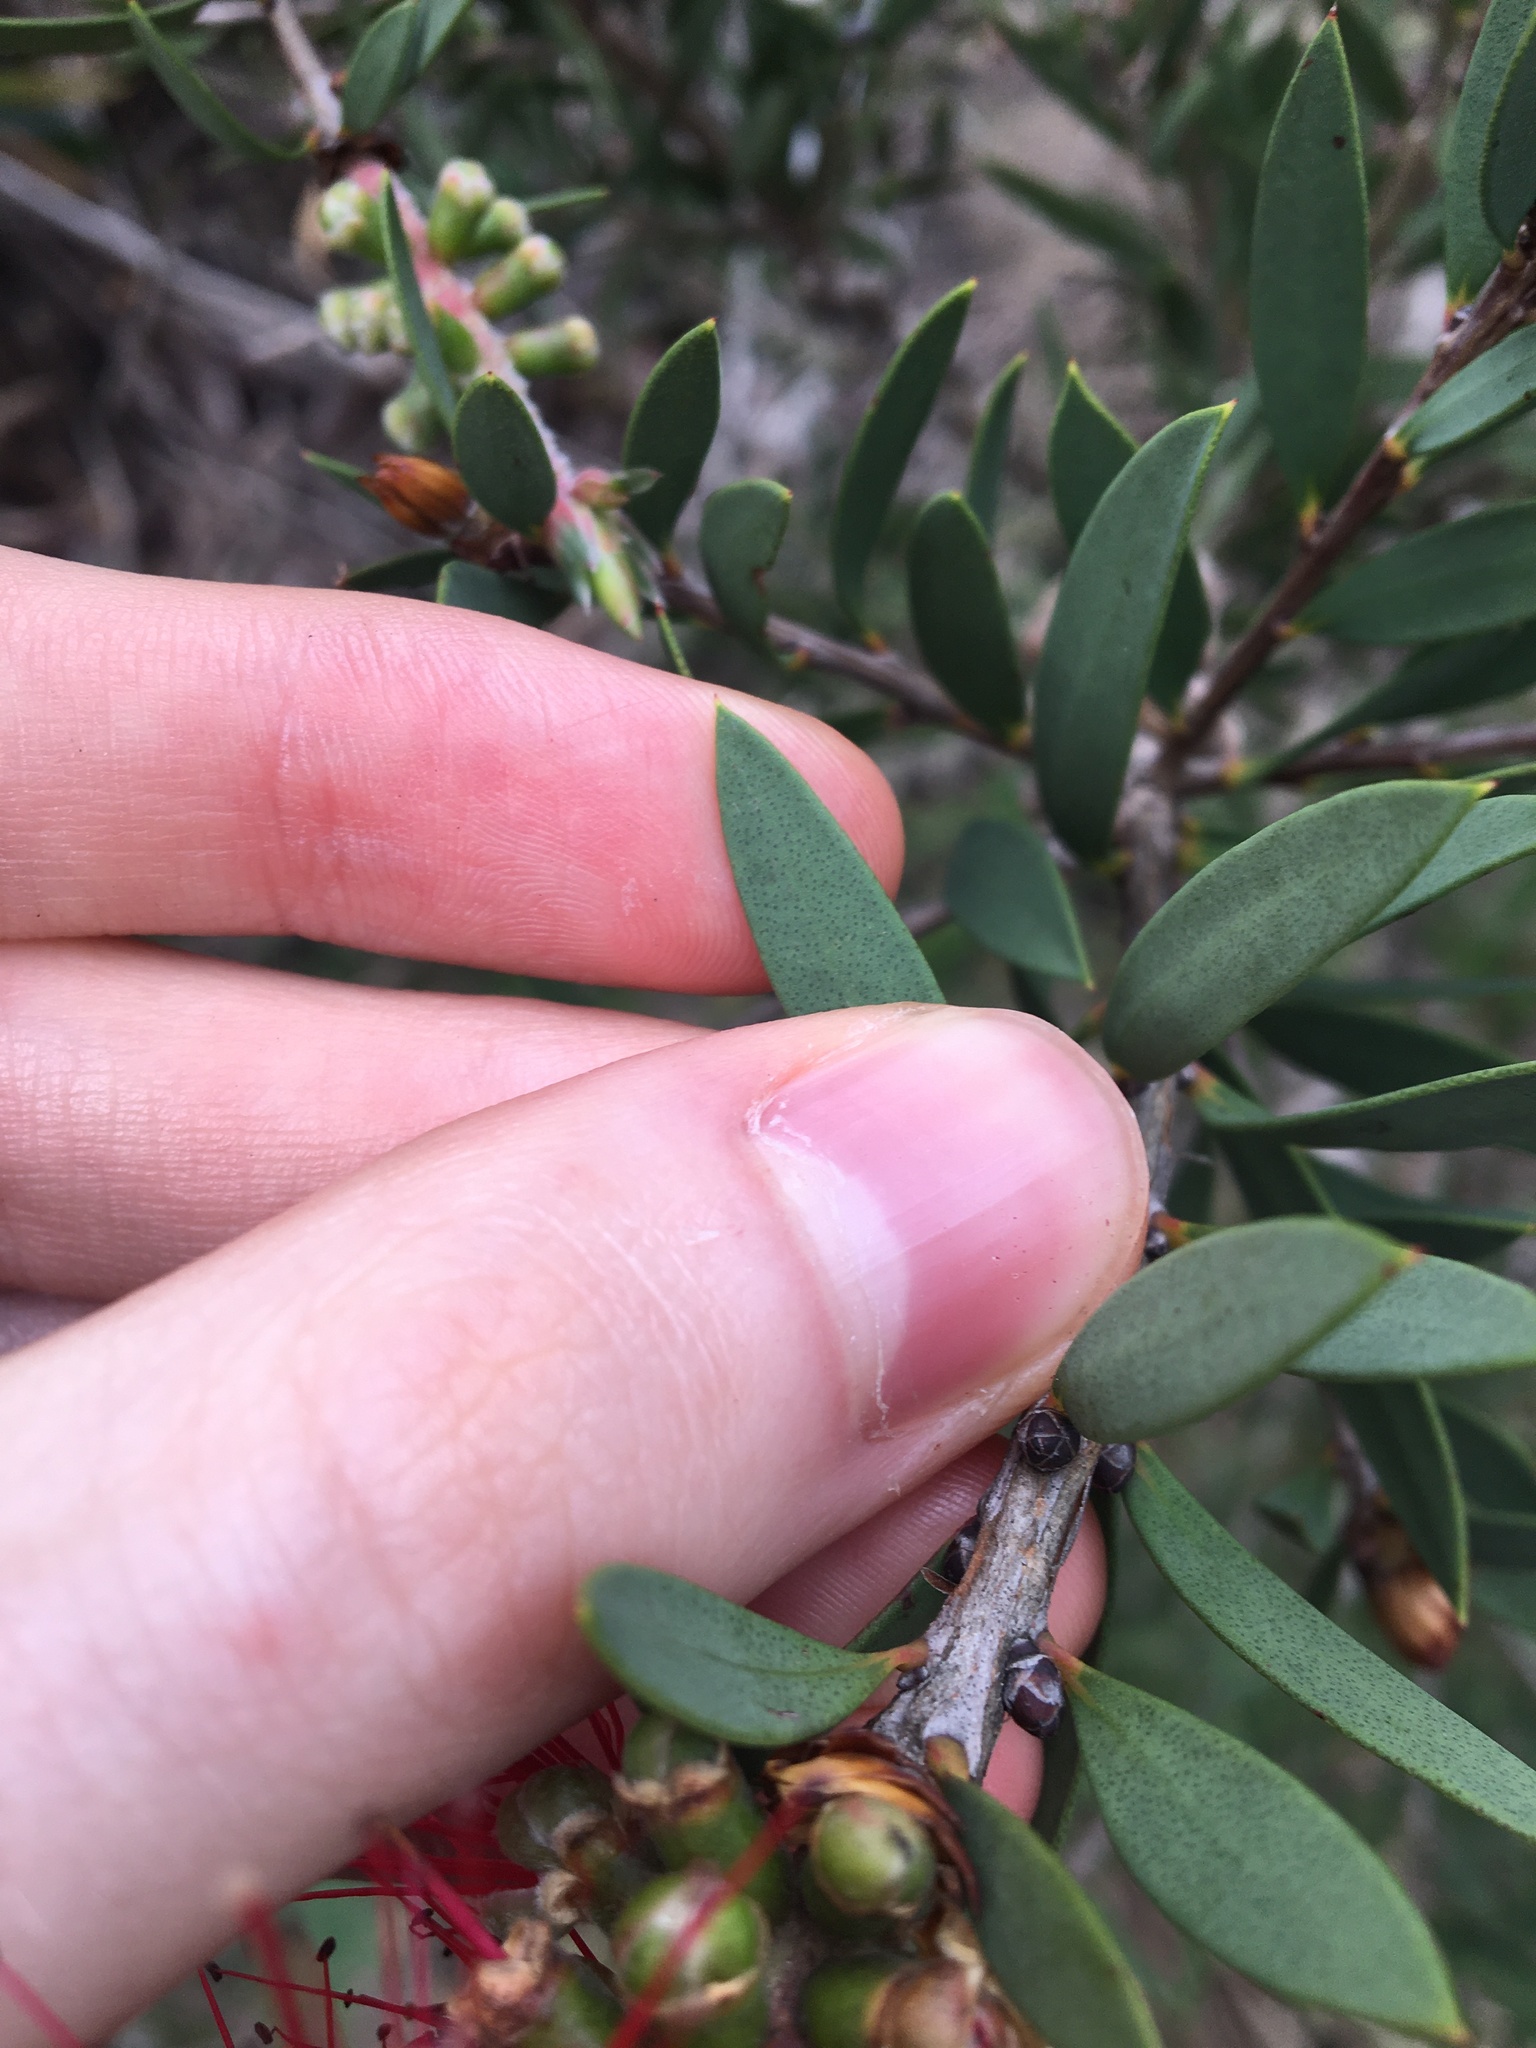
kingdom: Plantae
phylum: Tracheophyta
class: Magnoliopsida
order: Myrtales
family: Myrtaceae
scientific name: Myrtaceae
